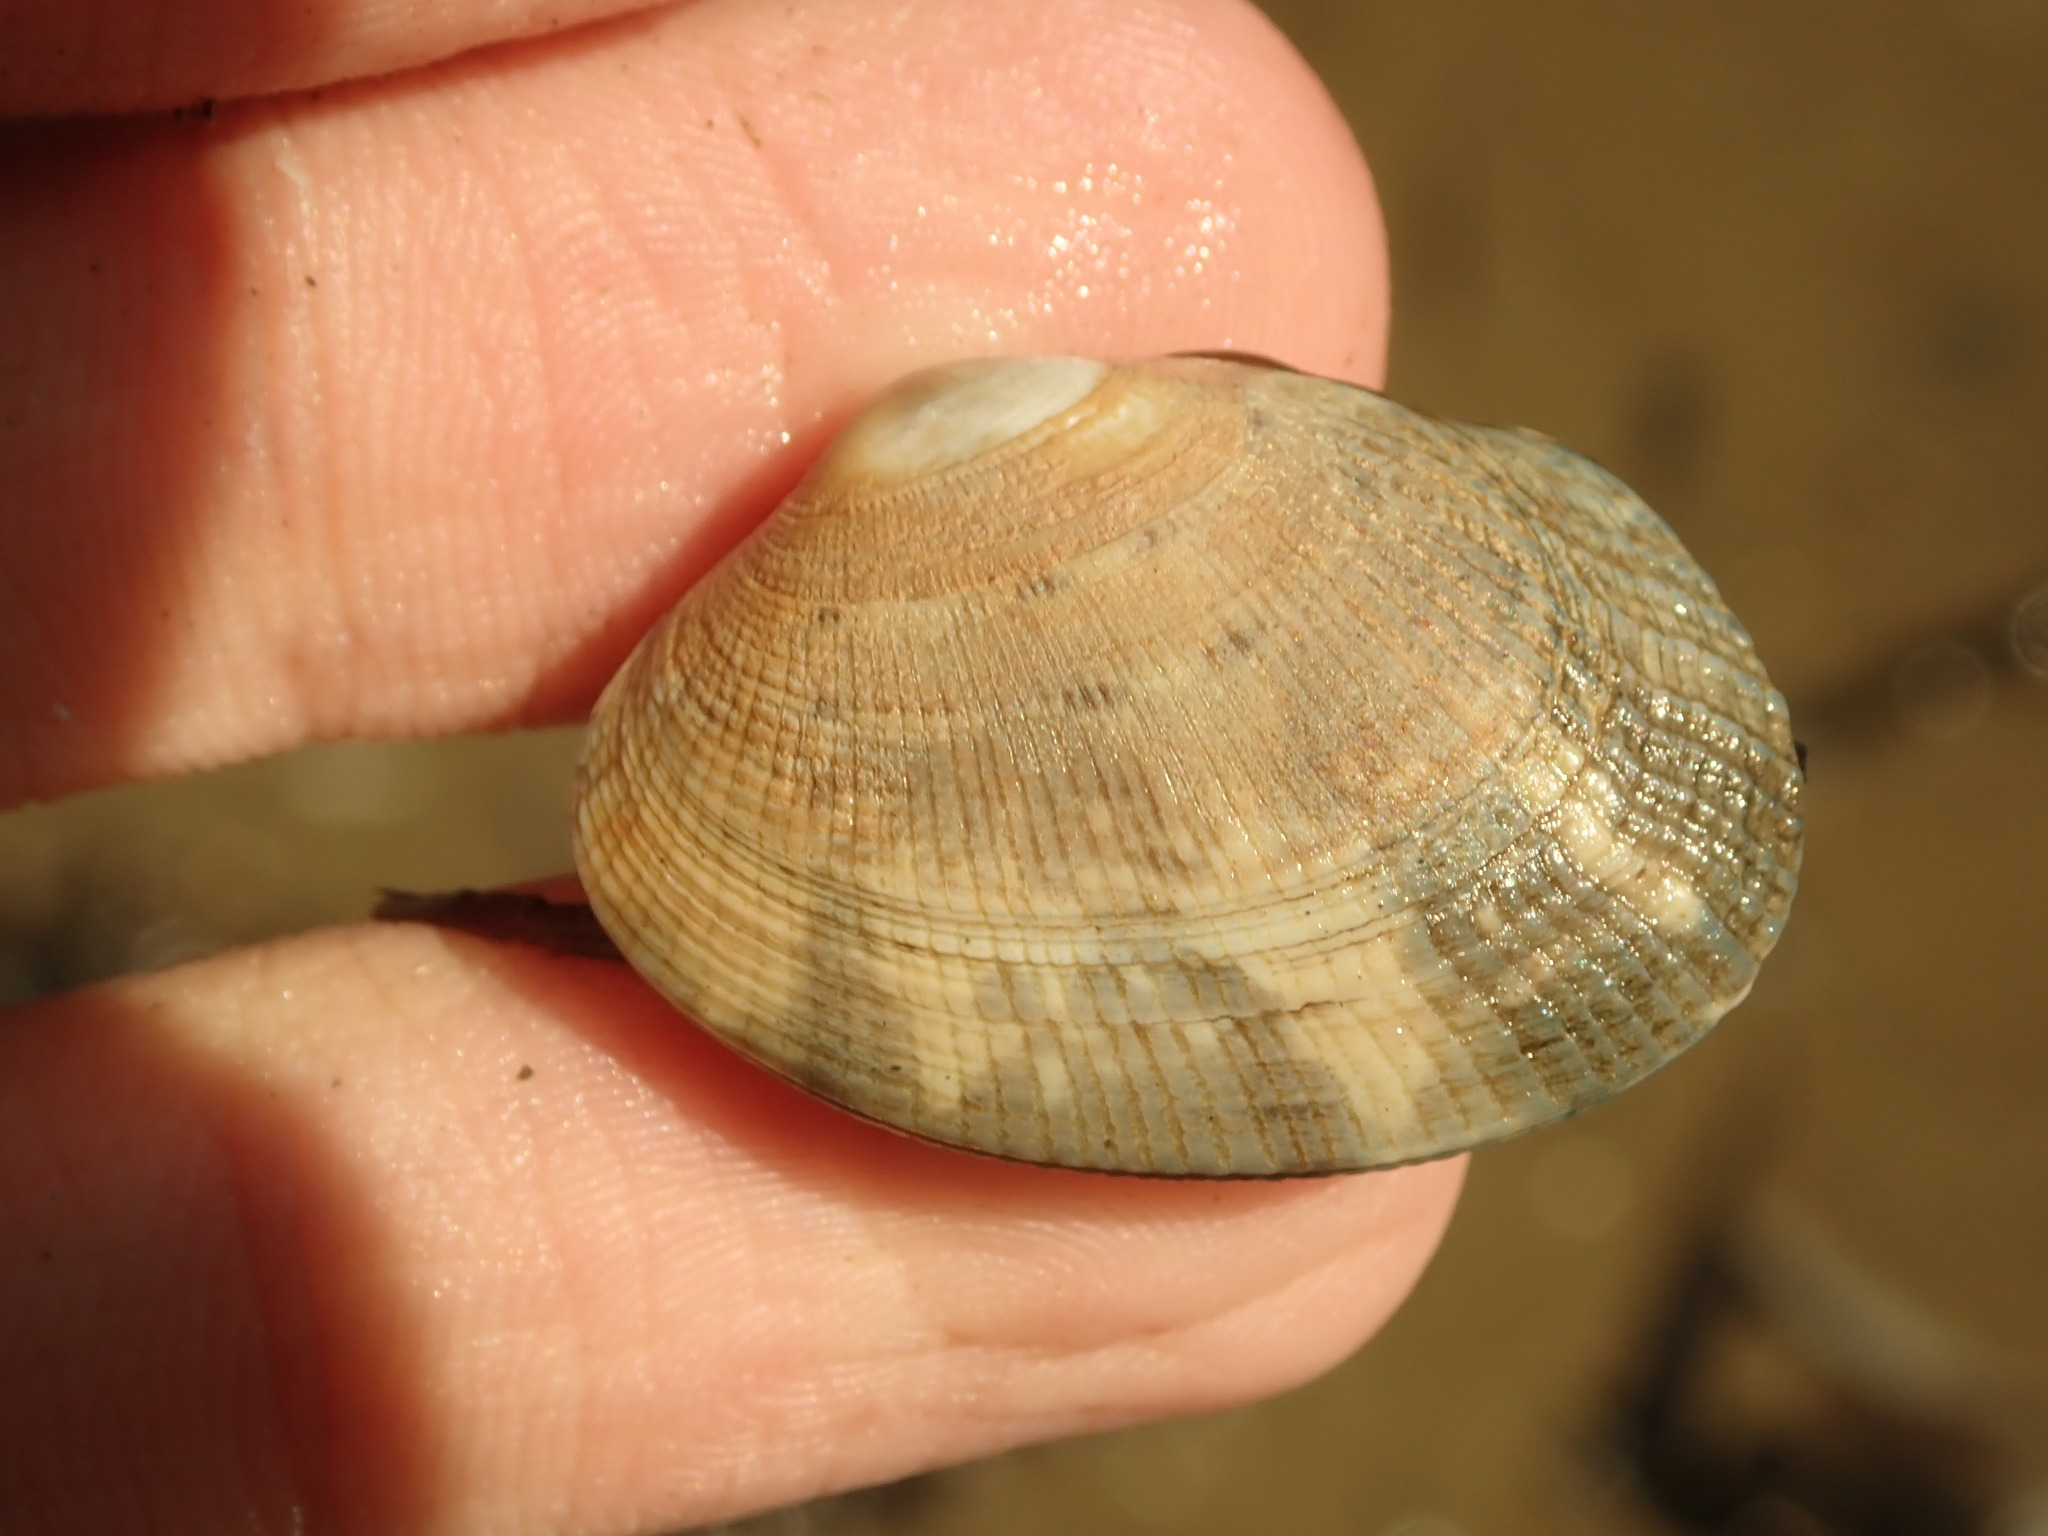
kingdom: Animalia
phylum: Mollusca
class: Bivalvia
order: Venerida
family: Veneridae
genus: Ruditapes
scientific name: Ruditapes philippinarum
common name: Manila clam
